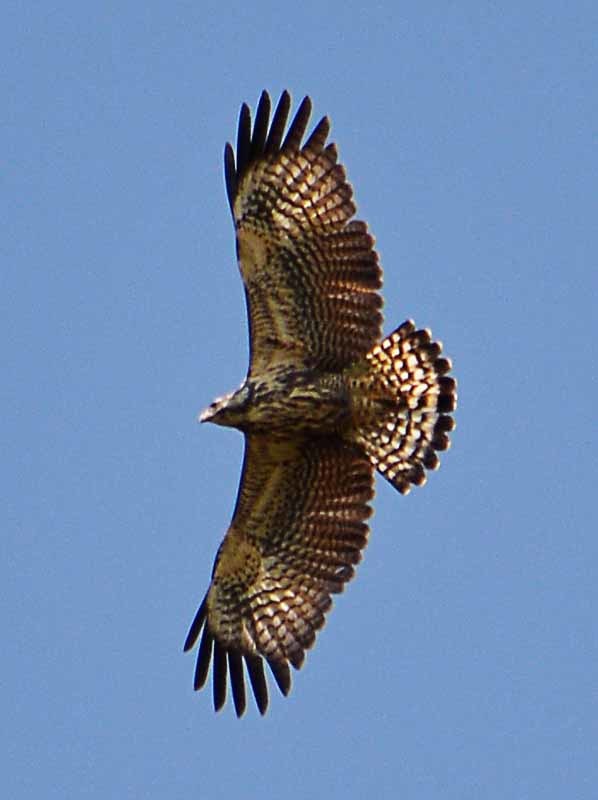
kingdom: Animalia
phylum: Chordata
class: Aves
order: Accipitriformes
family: Accipitridae
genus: Buteogallus
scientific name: Buteogallus anthracinus
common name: Common black hawk
